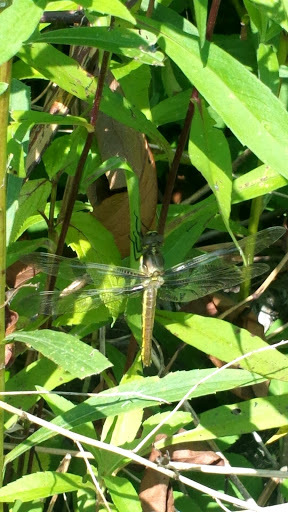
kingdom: Animalia
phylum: Arthropoda
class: Insecta
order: Odonata
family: Libellulidae
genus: Libellula
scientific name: Libellula pulchella
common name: Twelve-spotted skimmer
